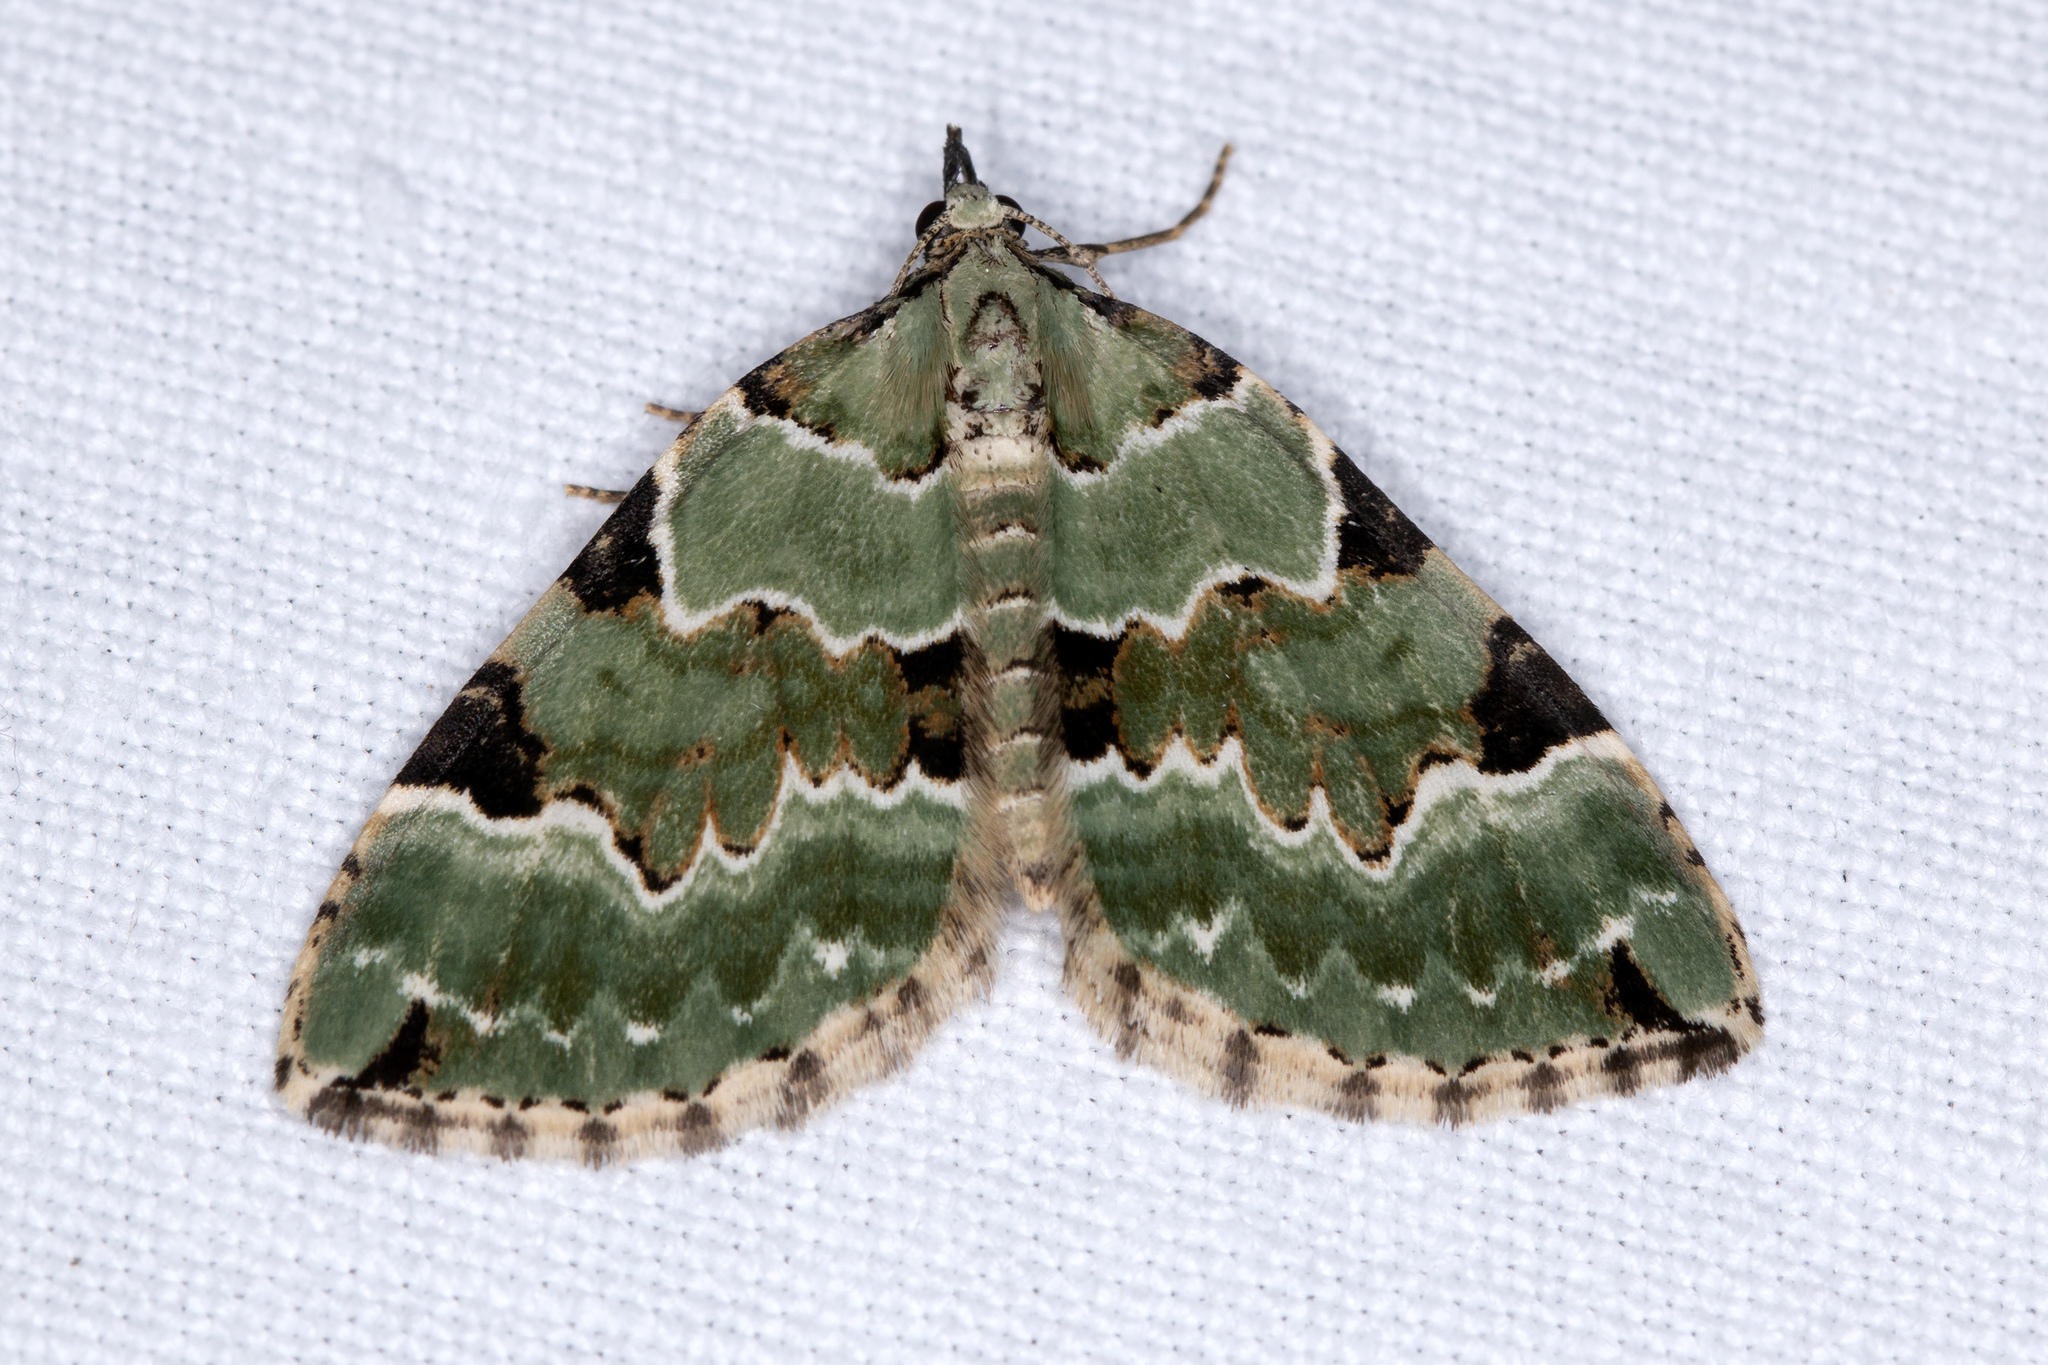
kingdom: Animalia
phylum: Arthropoda
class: Insecta
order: Lepidoptera
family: Geometridae
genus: Colostygia
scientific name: Colostygia pectinataria
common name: Green carpet
